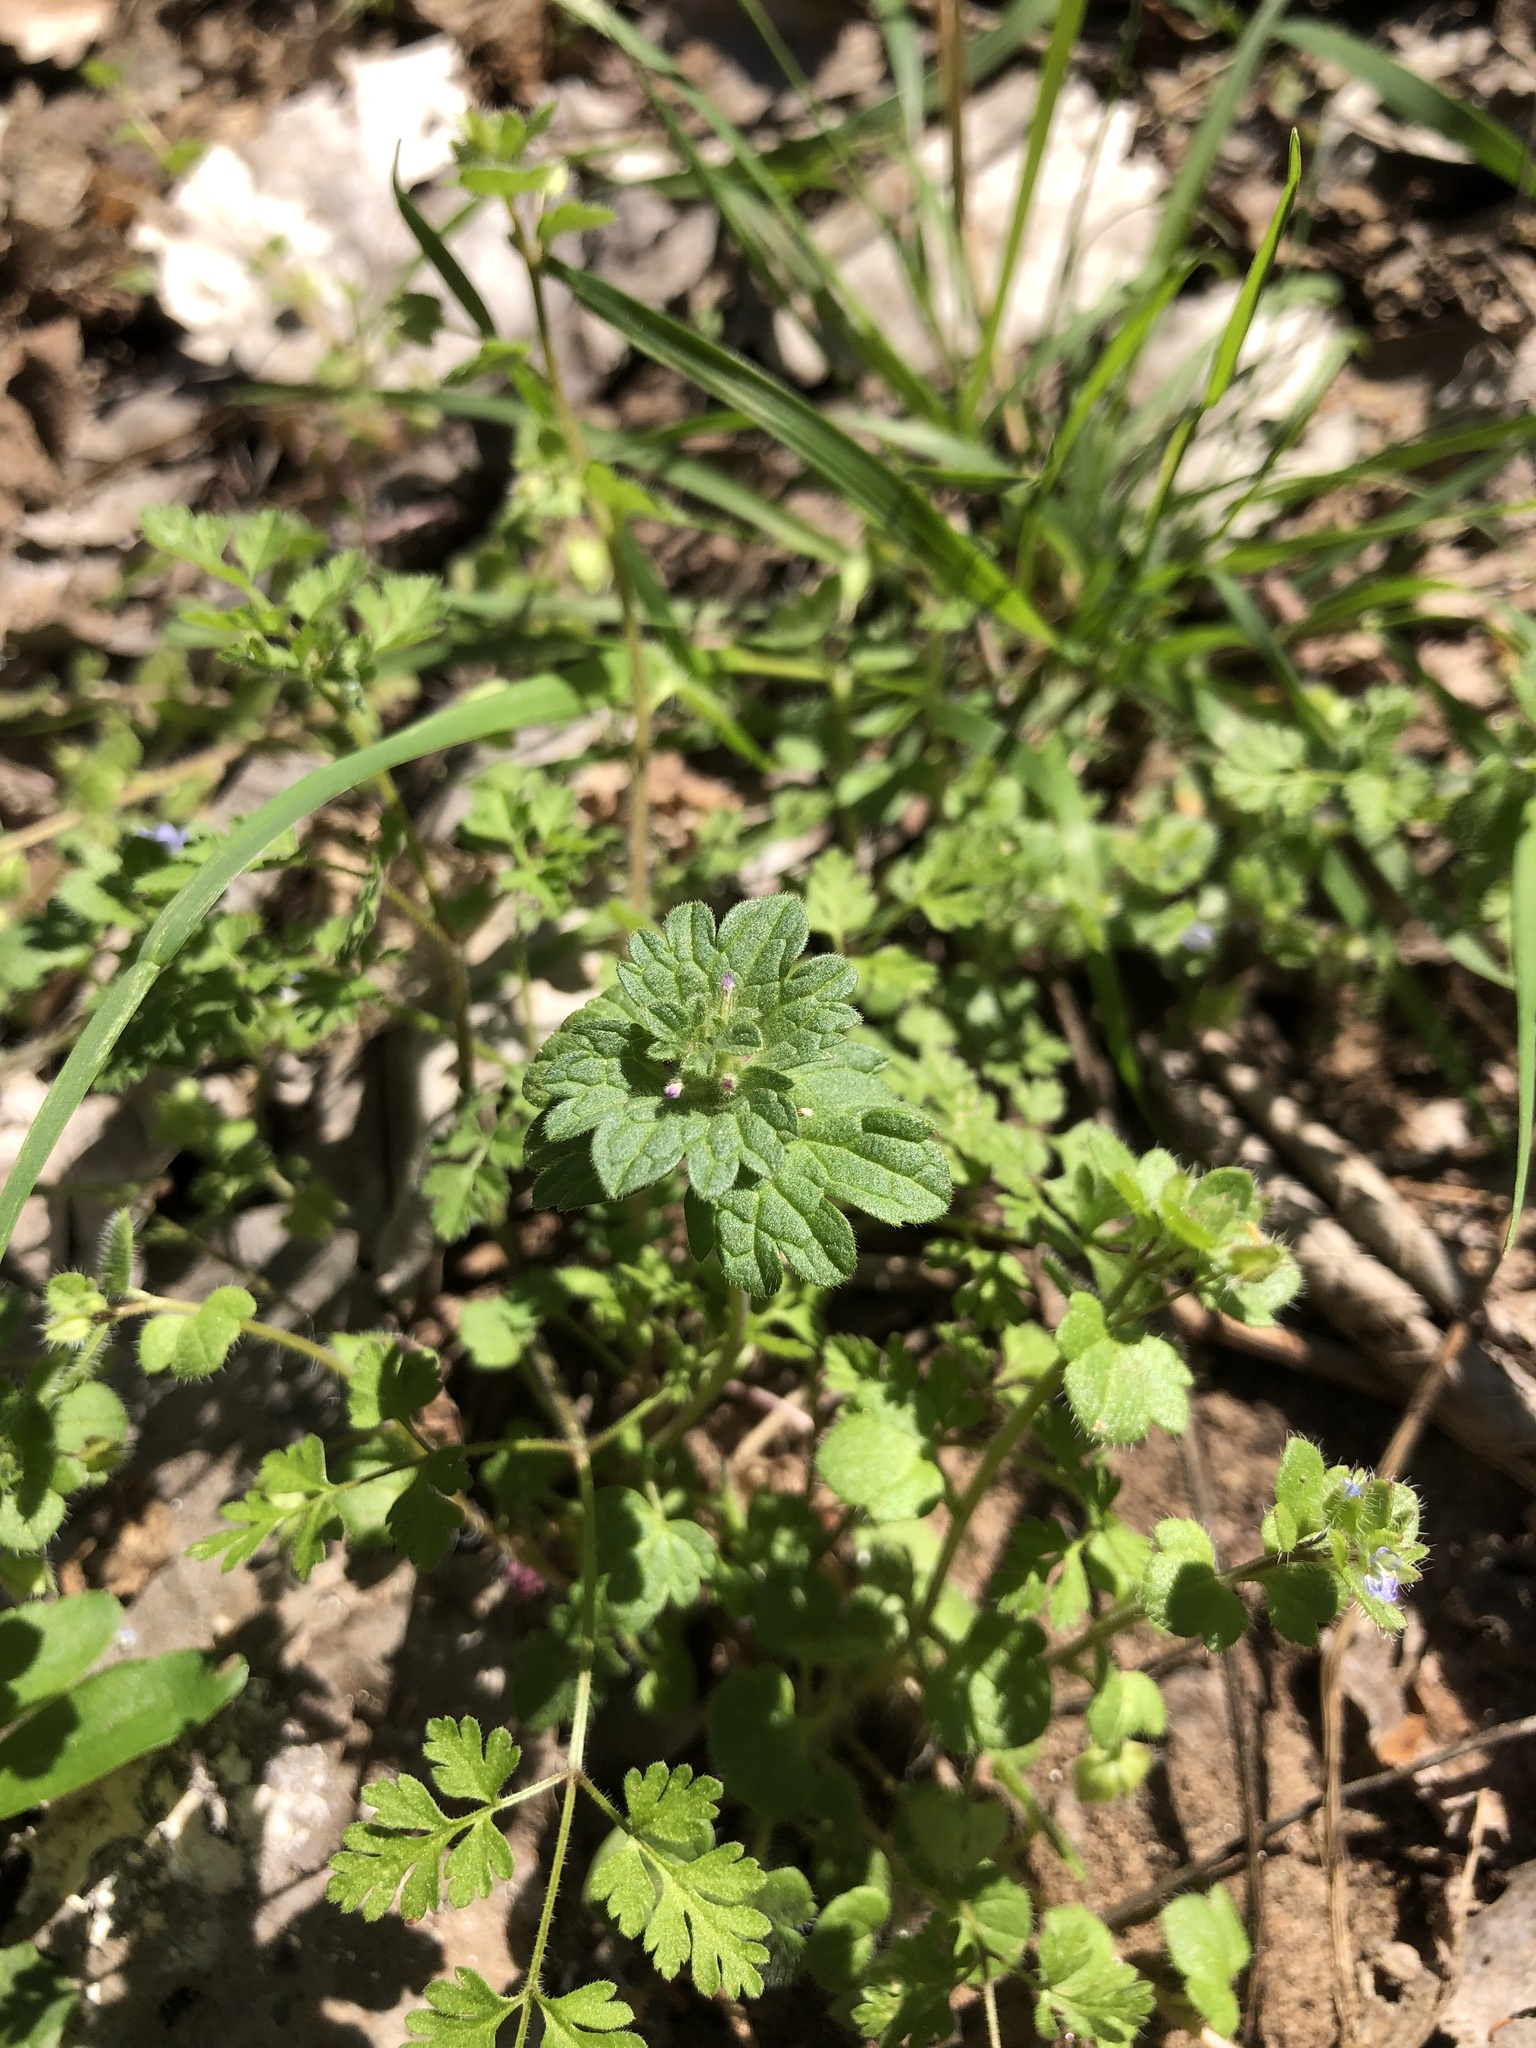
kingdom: Plantae
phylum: Tracheophyta
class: Magnoliopsida
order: Lamiales
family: Lamiaceae
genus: Lamium
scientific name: Lamium amplexicaule
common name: Henbit dead-nettle
